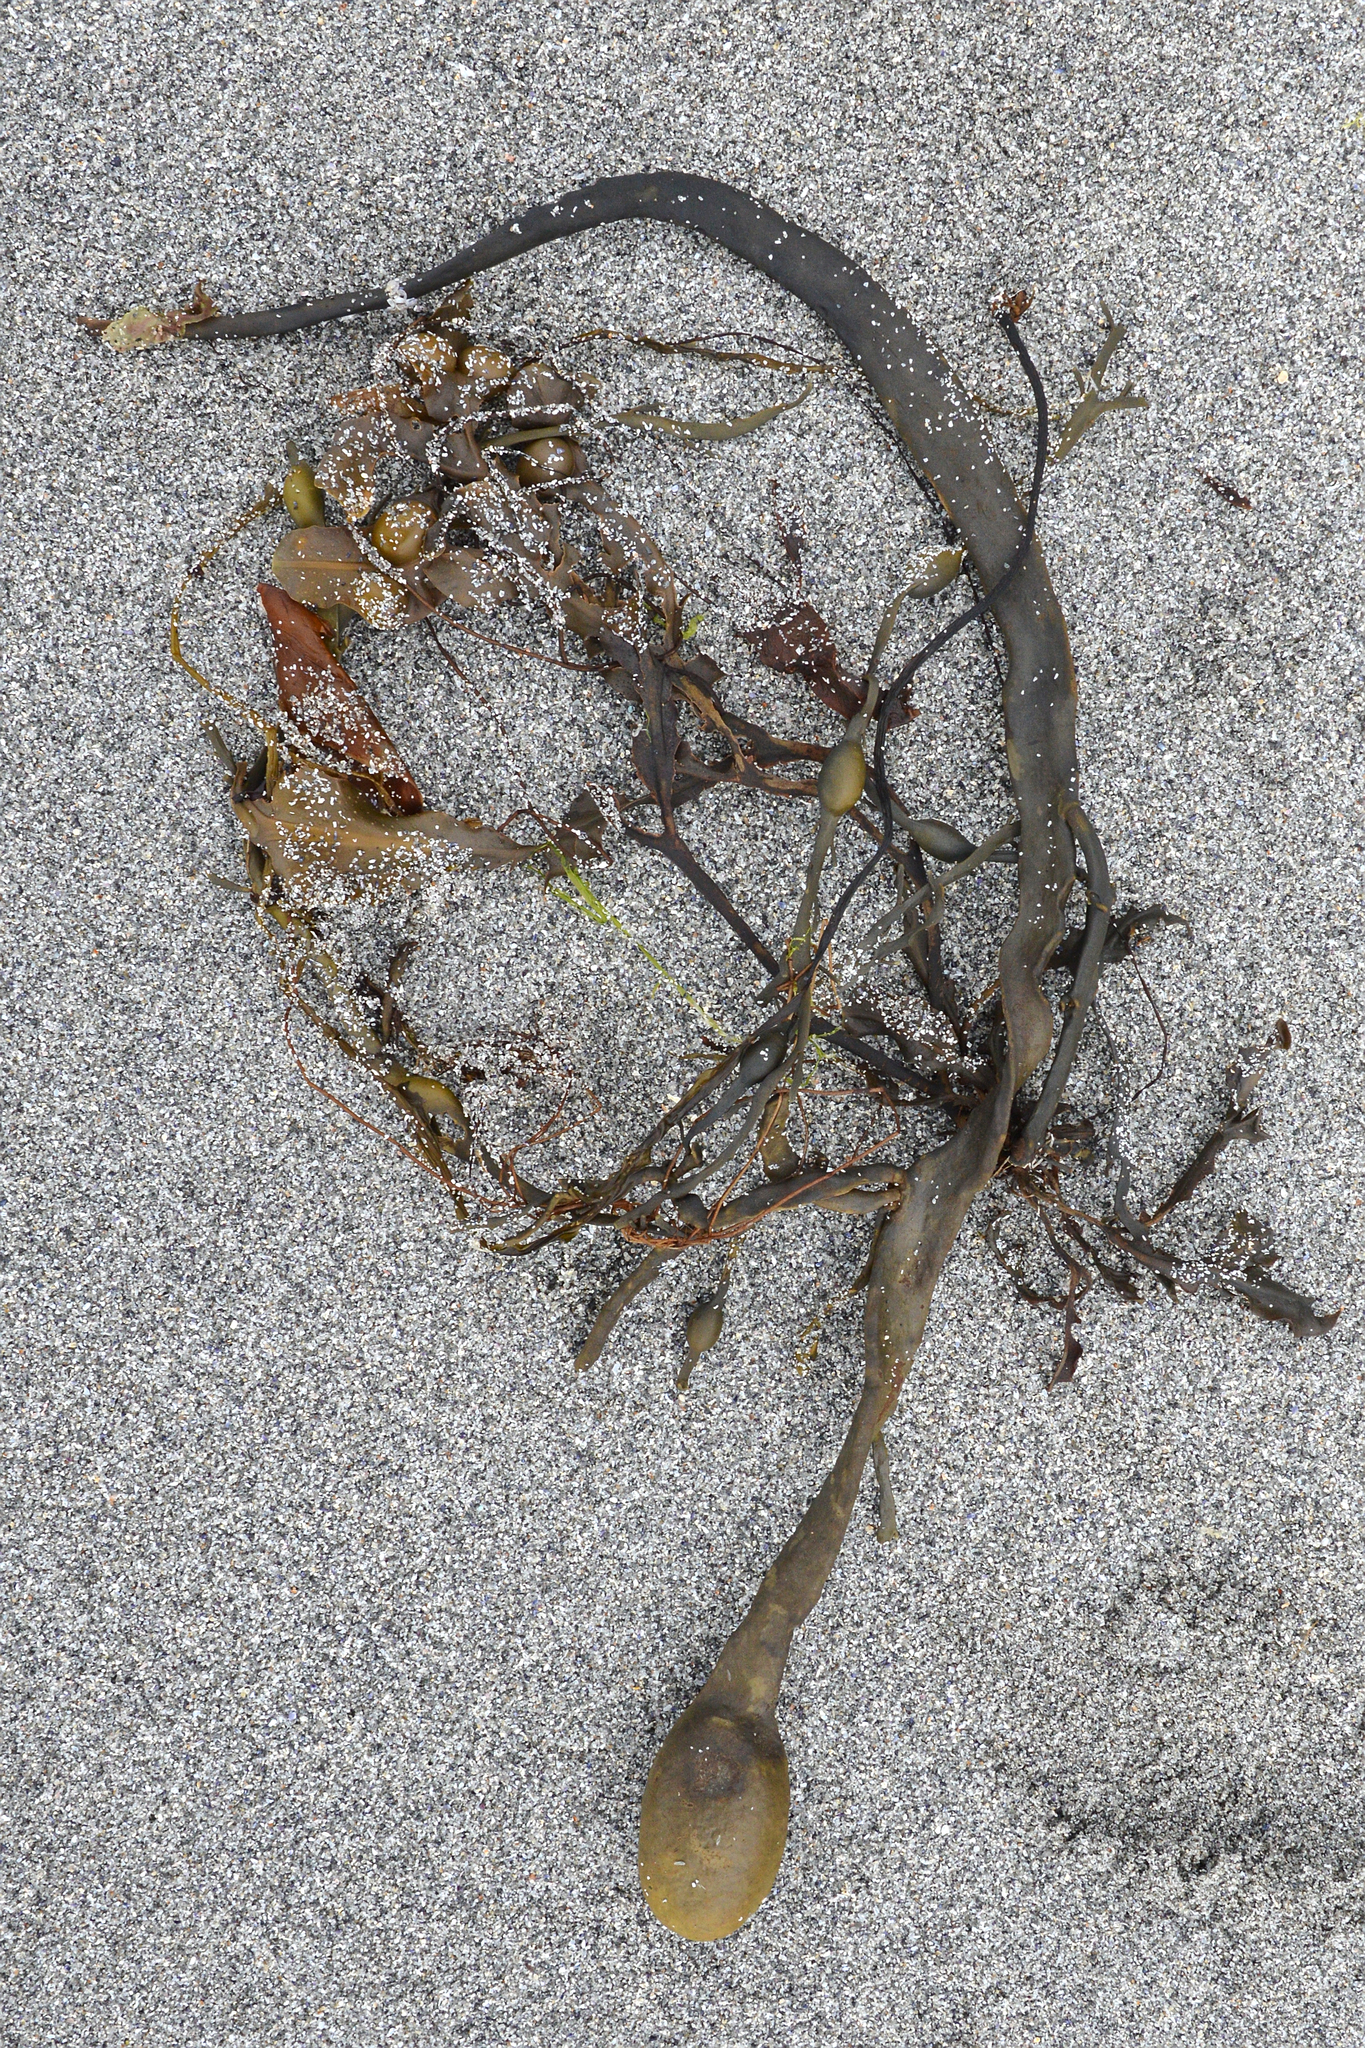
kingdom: Chromista
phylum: Ochrophyta
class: Phaeophyceae
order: Fucales
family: Fucaceae
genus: Ascophyllum
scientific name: Ascophyllum nodosum
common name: Knotted wrack
